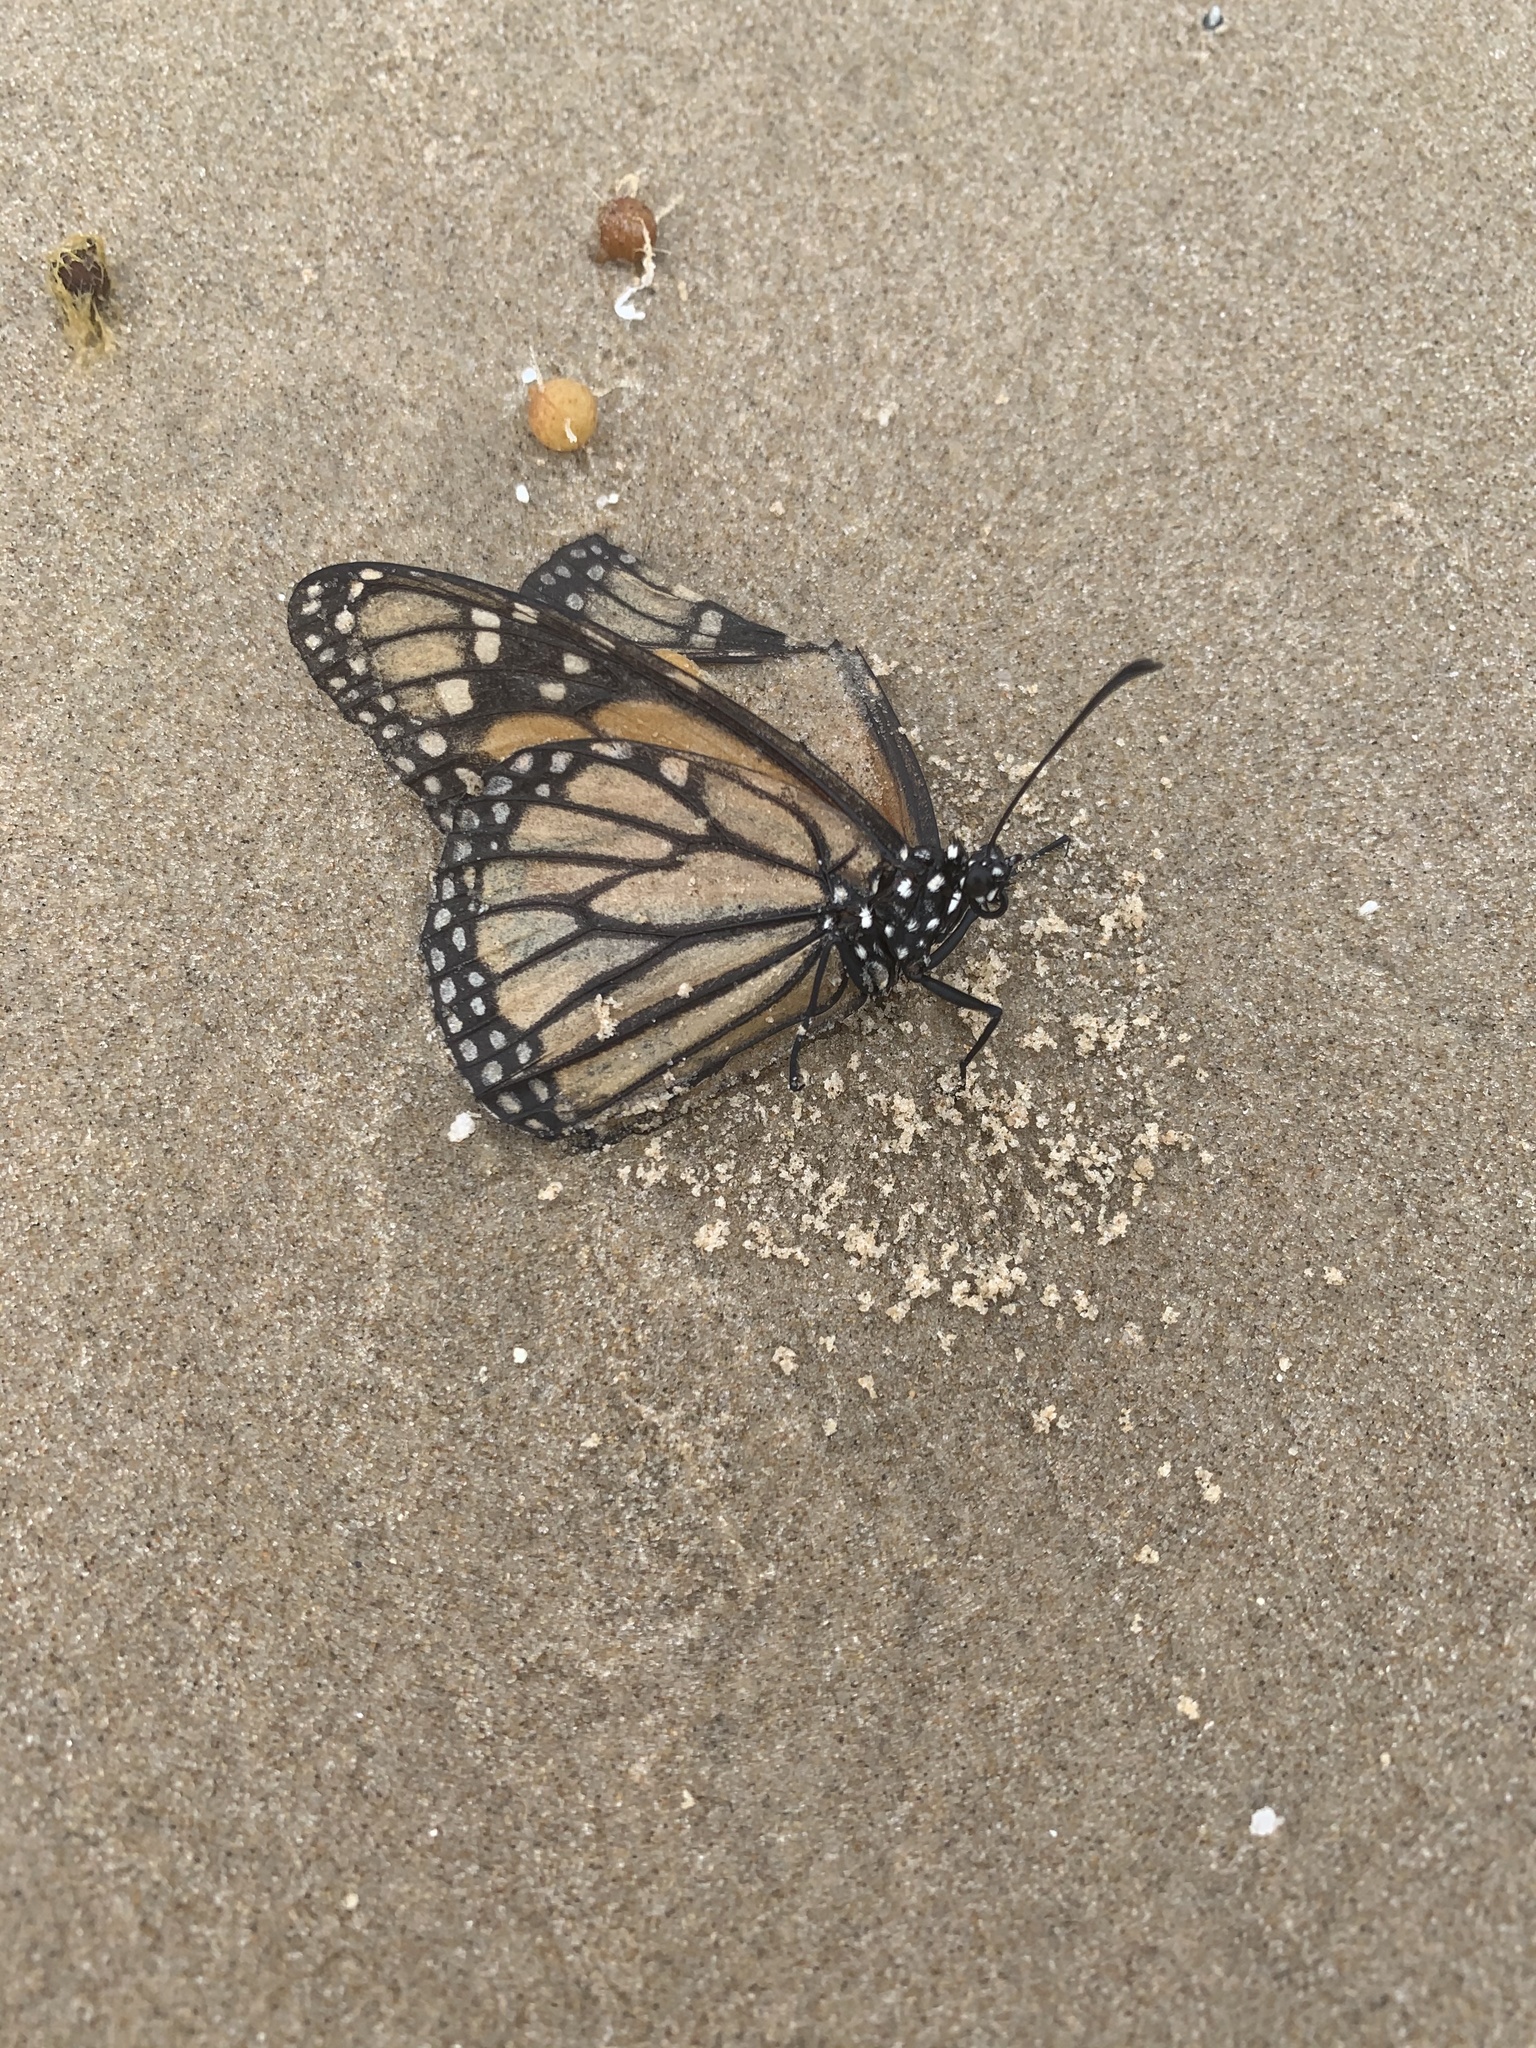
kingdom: Animalia
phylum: Arthropoda
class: Insecta
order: Lepidoptera
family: Nymphalidae
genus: Danaus
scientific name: Danaus plexippus
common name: Monarch
